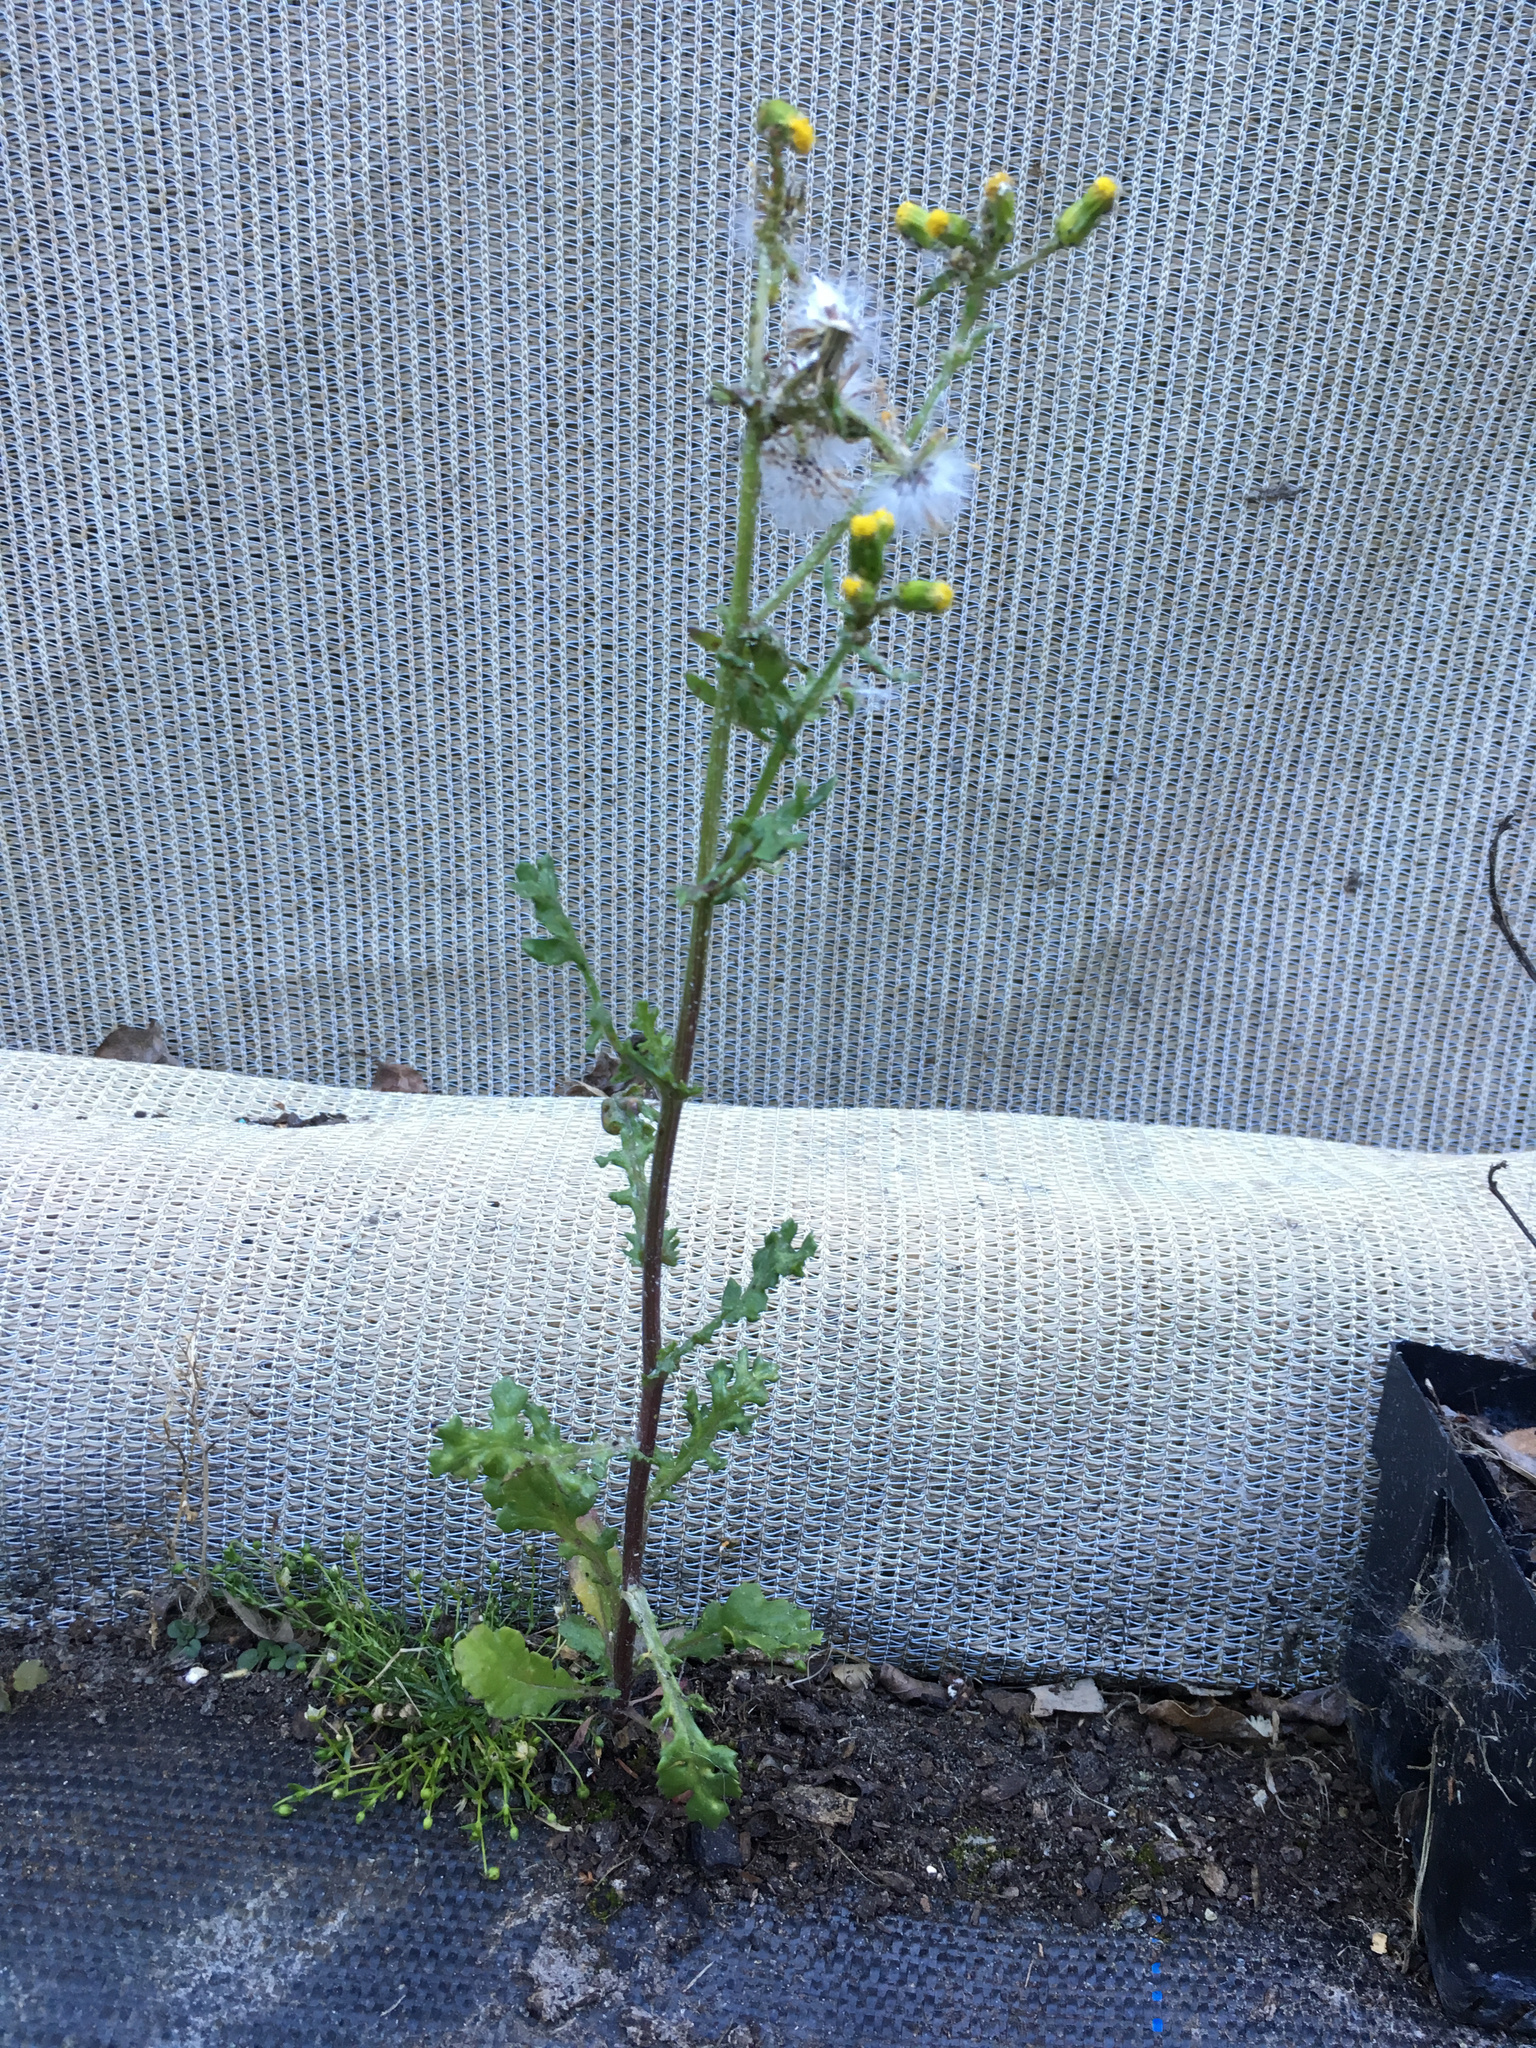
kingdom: Plantae
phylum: Tracheophyta
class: Magnoliopsida
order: Asterales
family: Asteraceae
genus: Senecio
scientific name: Senecio vulgaris
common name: Old-man-in-the-spring
